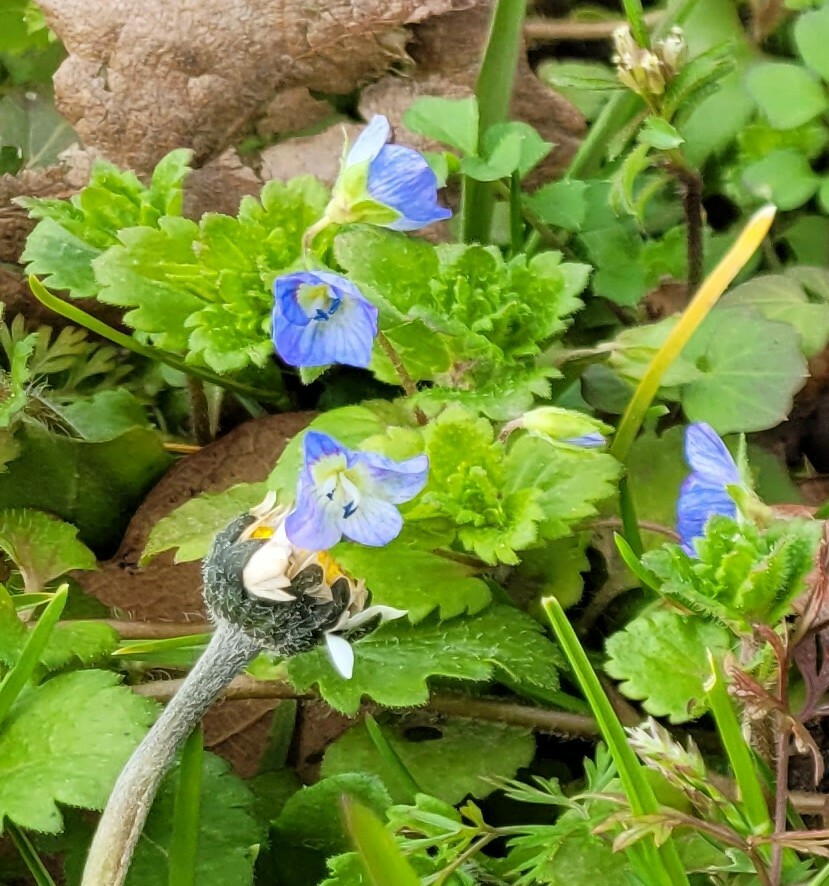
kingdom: Plantae
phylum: Tracheophyta
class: Magnoliopsida
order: Lamiales
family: Plantaginaceae
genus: Veronica
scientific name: Veronica persica
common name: Common field-speedwell
